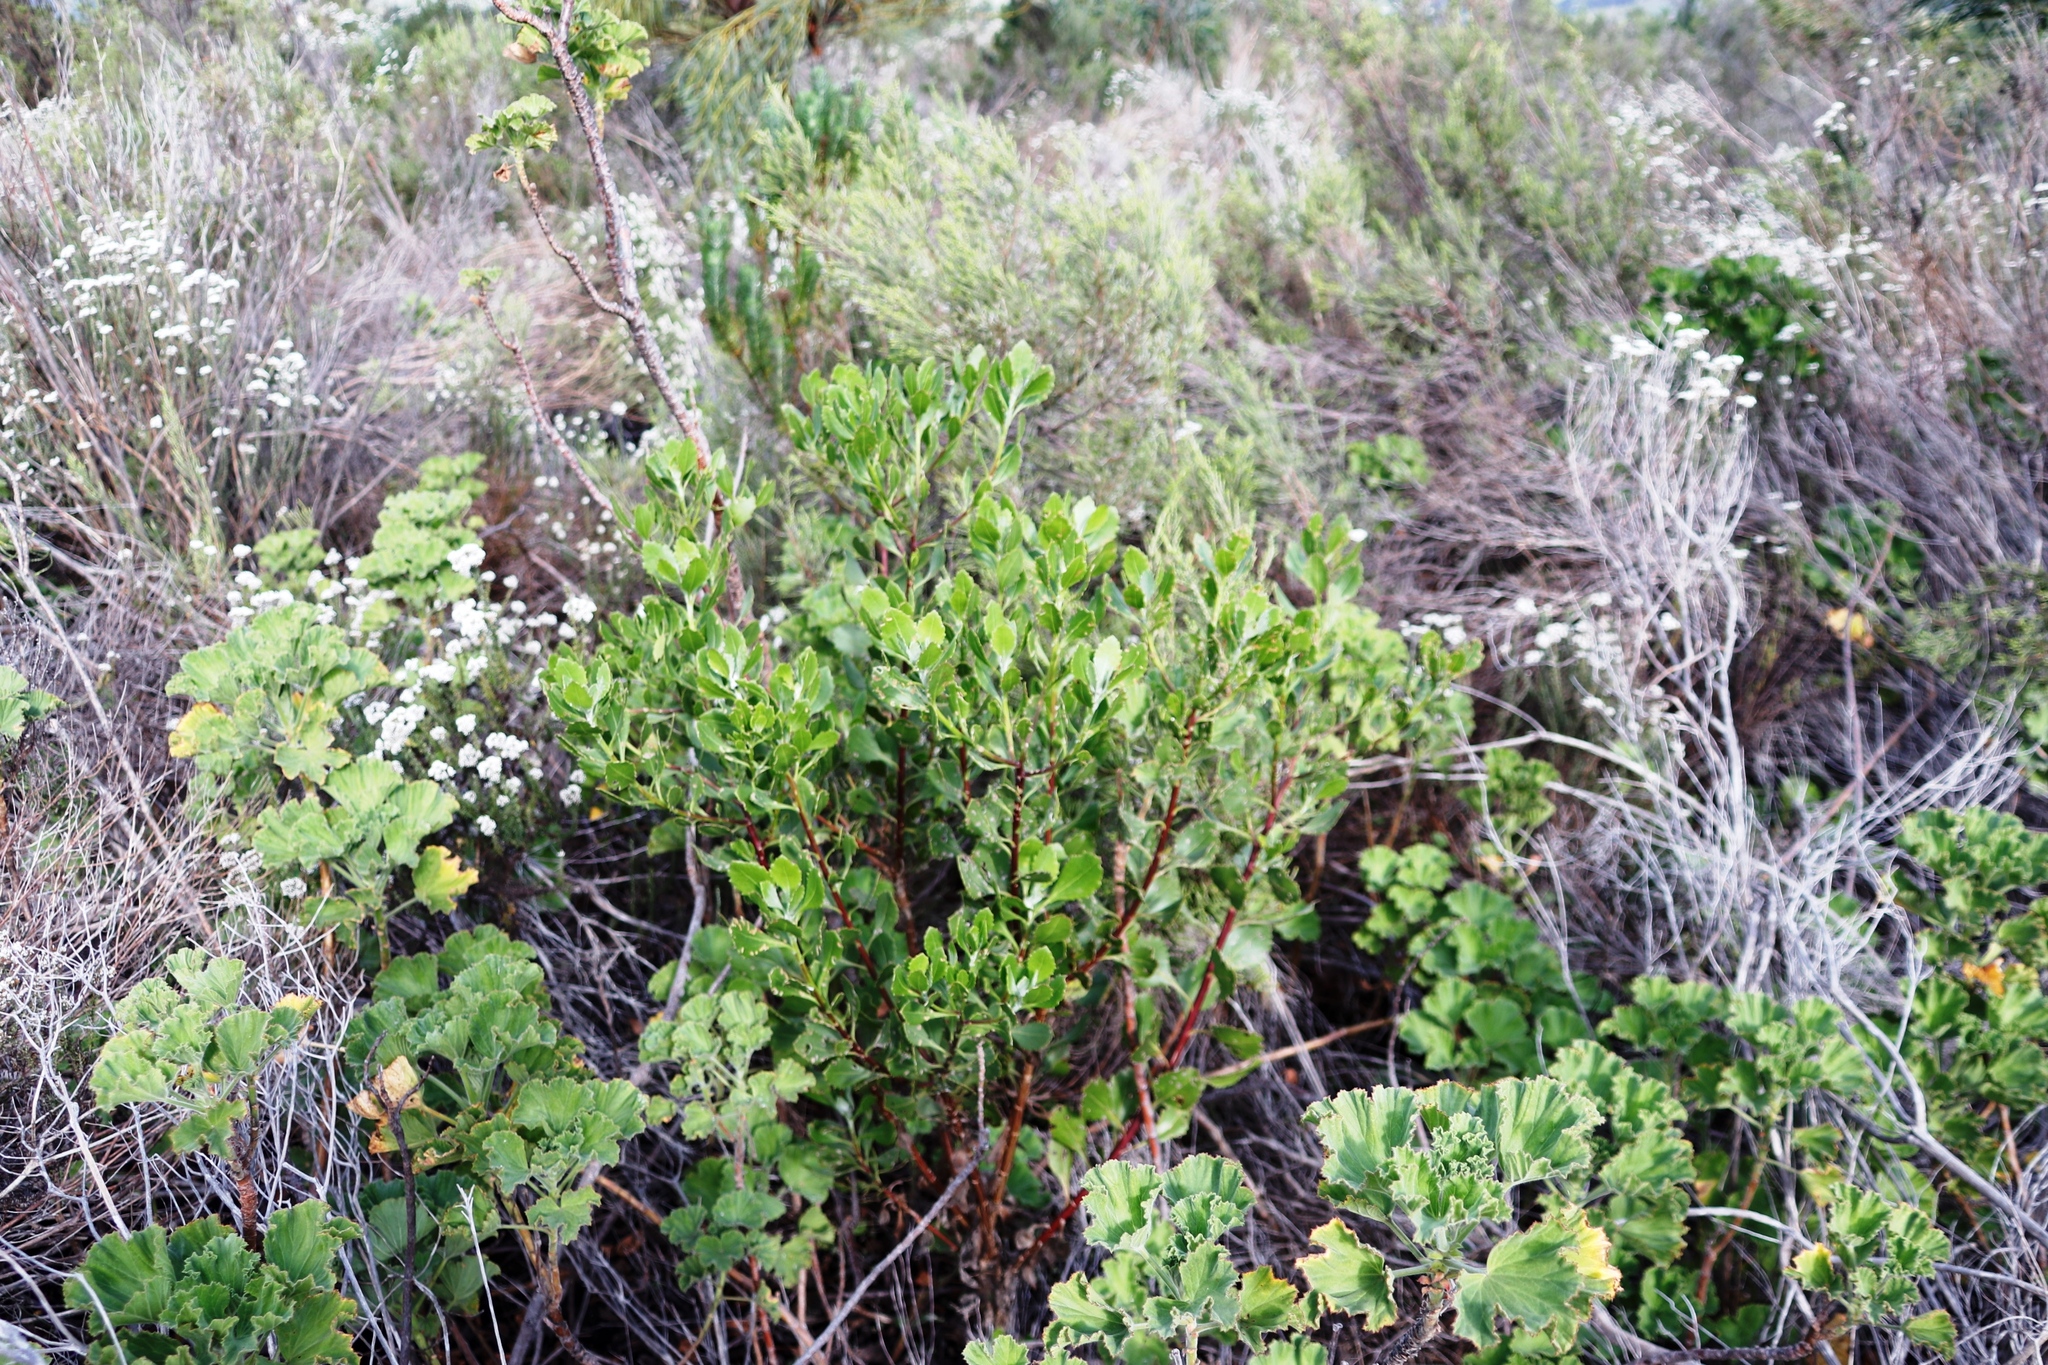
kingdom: Plantae
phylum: Tracheophyta
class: Magnoliopsida
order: Asterales
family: Asteraceae
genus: Osteospermum
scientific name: Osteospermum moniliferum
